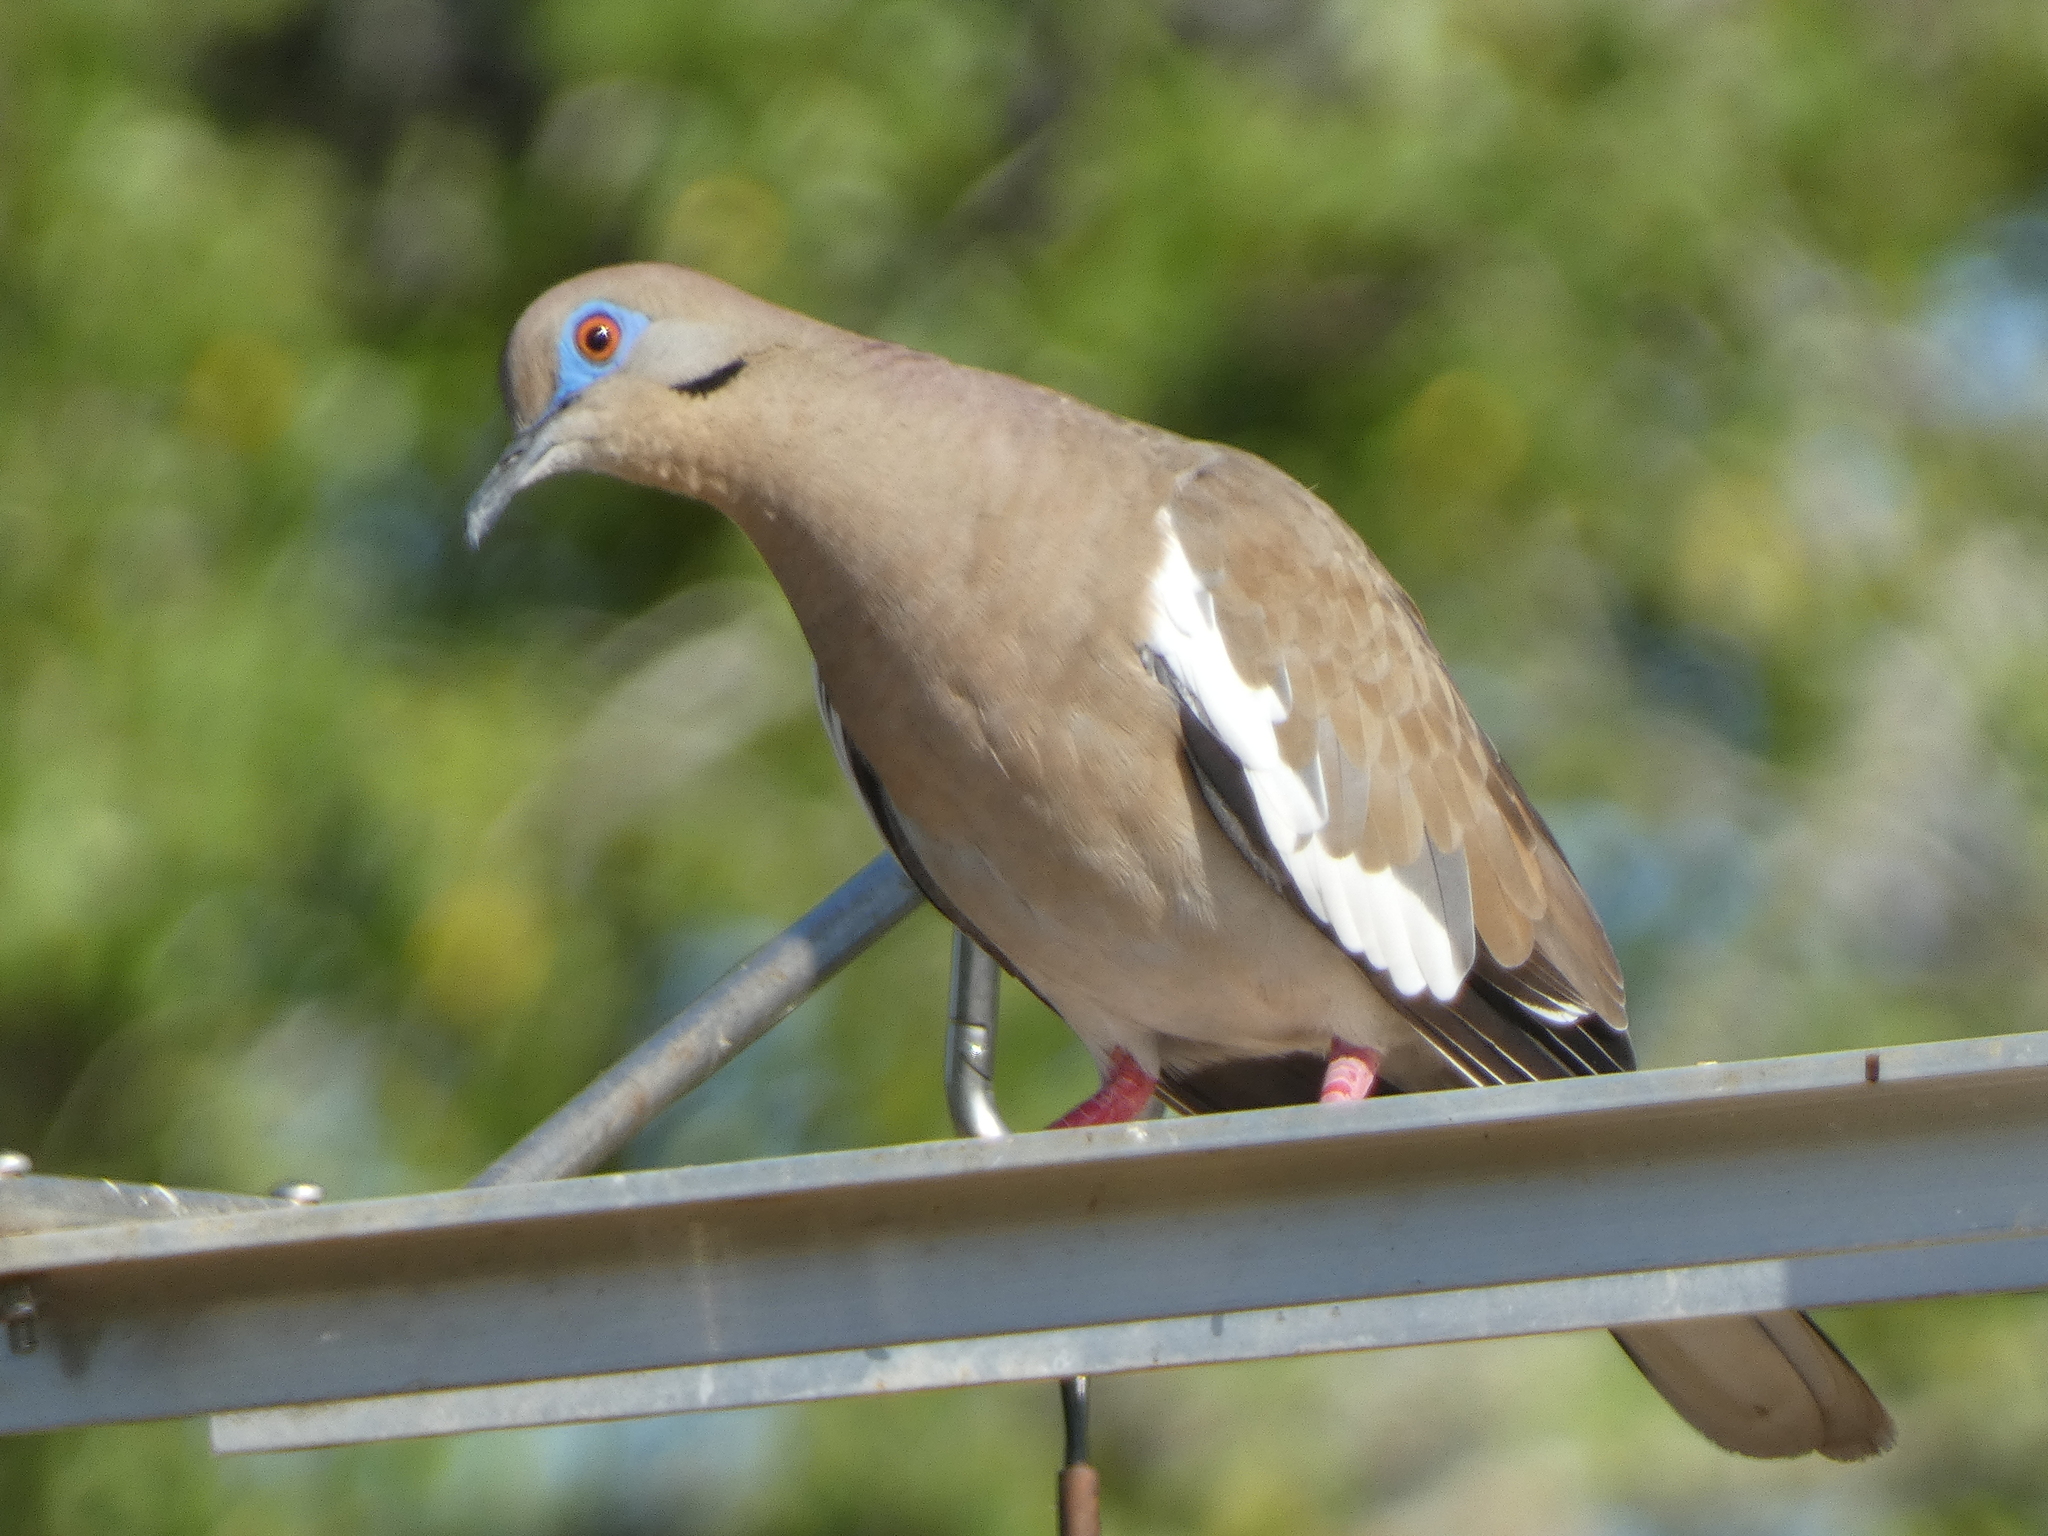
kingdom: Animalia
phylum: Chordata
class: Aves
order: Columbiformes
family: Columbidae
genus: Zenaida
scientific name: Zenaida asiatica
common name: White-winged dove
